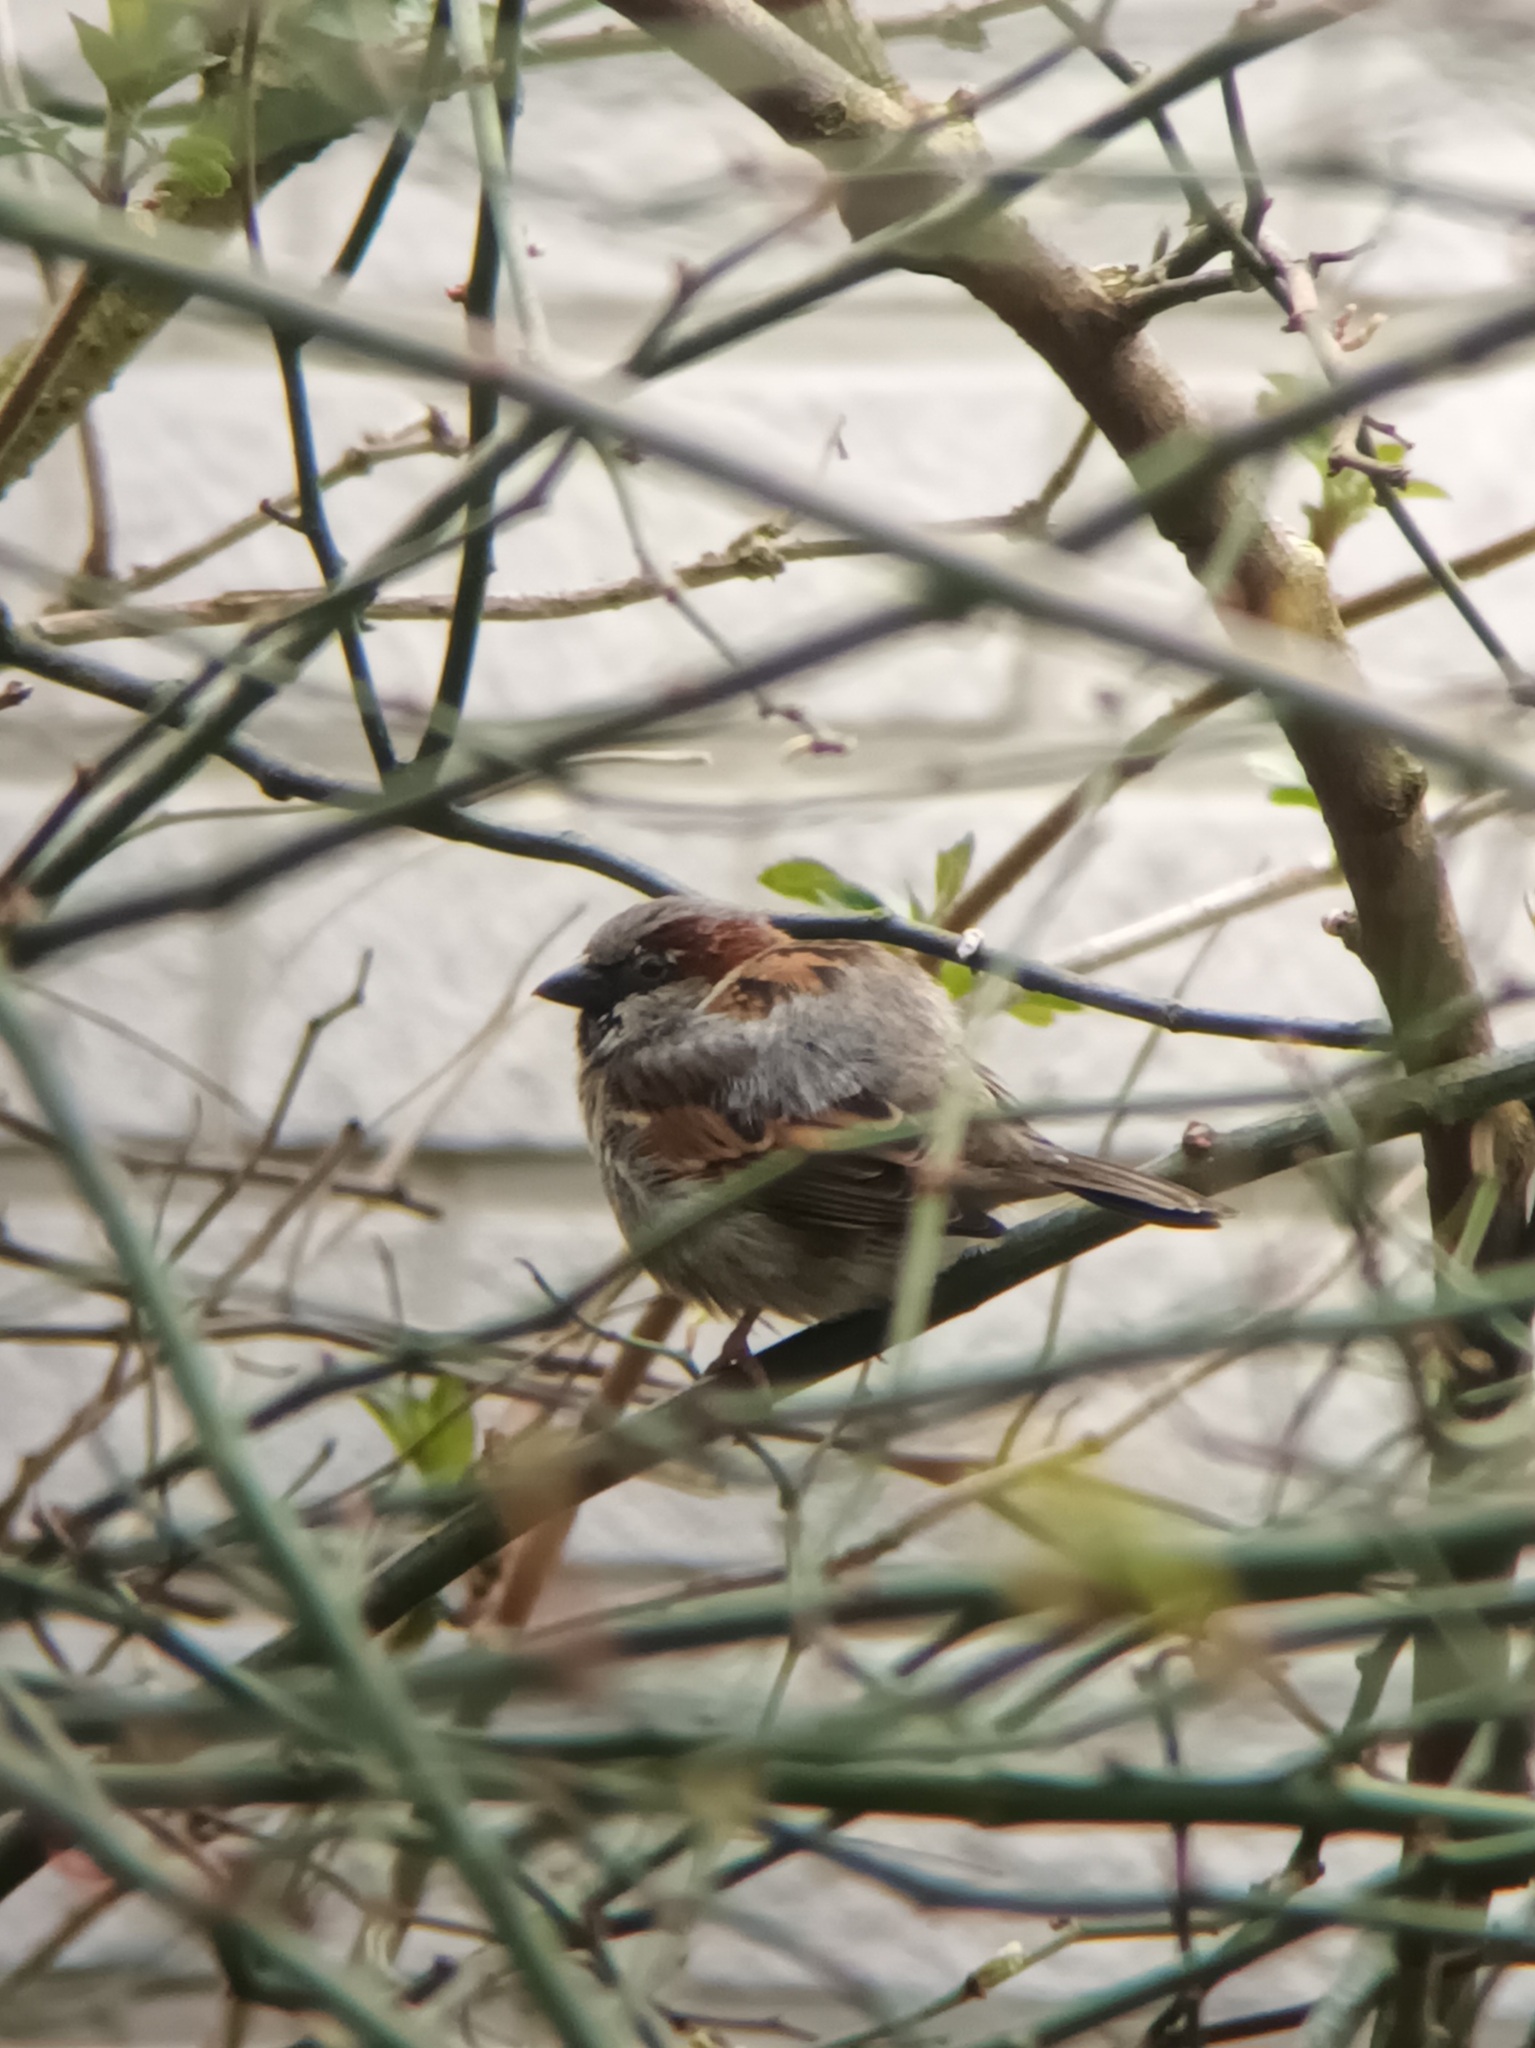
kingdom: Animalia
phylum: Chordata
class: Aves
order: Passeriformes
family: Passeridae
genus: Passer
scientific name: Passer domesticus
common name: House sparrow
